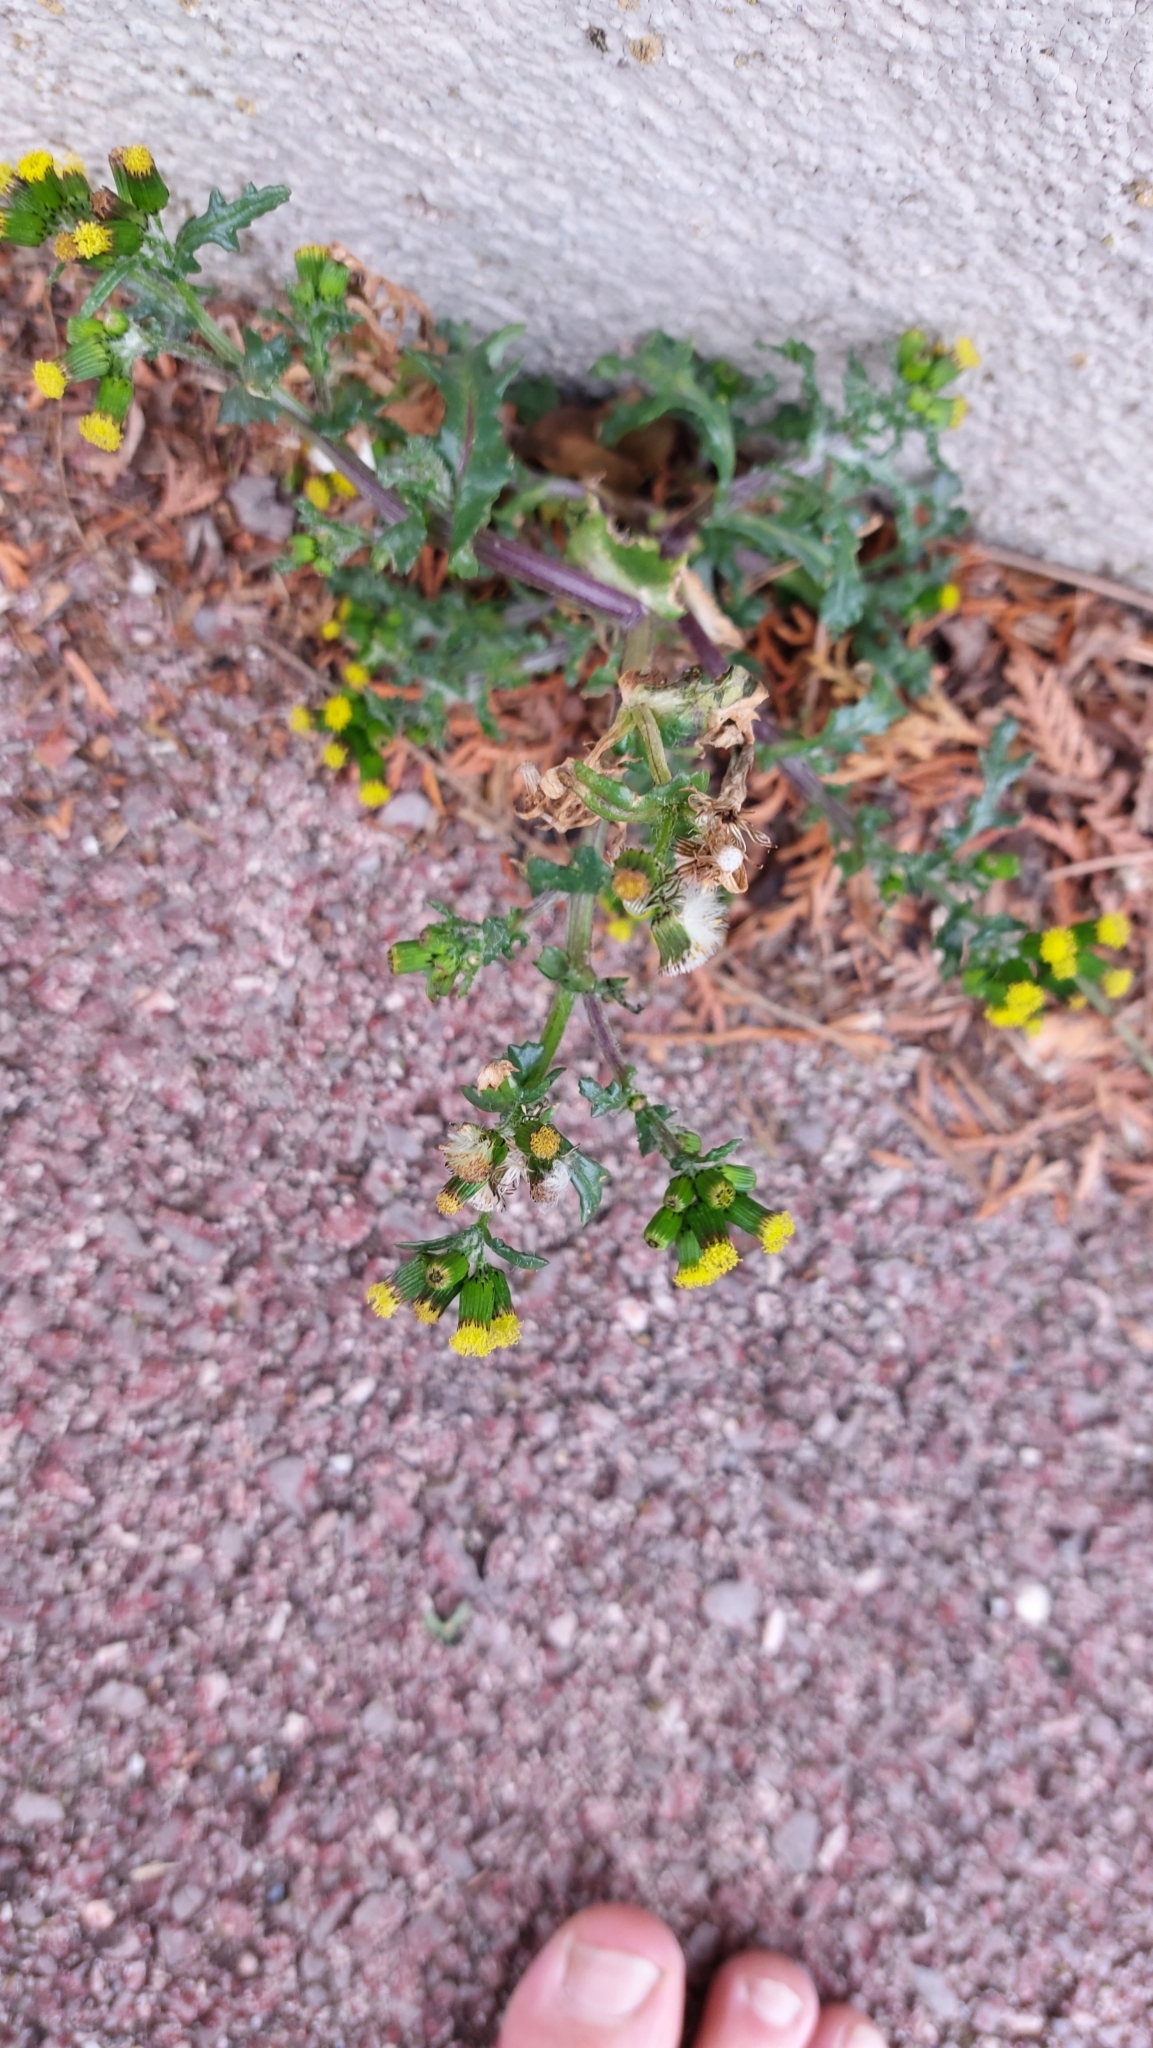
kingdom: Plantae
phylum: Tracheophyta
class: Magnoliopsida
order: Asterales
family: Asteraceae
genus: Senecio
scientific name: Senecio vulgaris
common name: Old-man-in-the-spring
